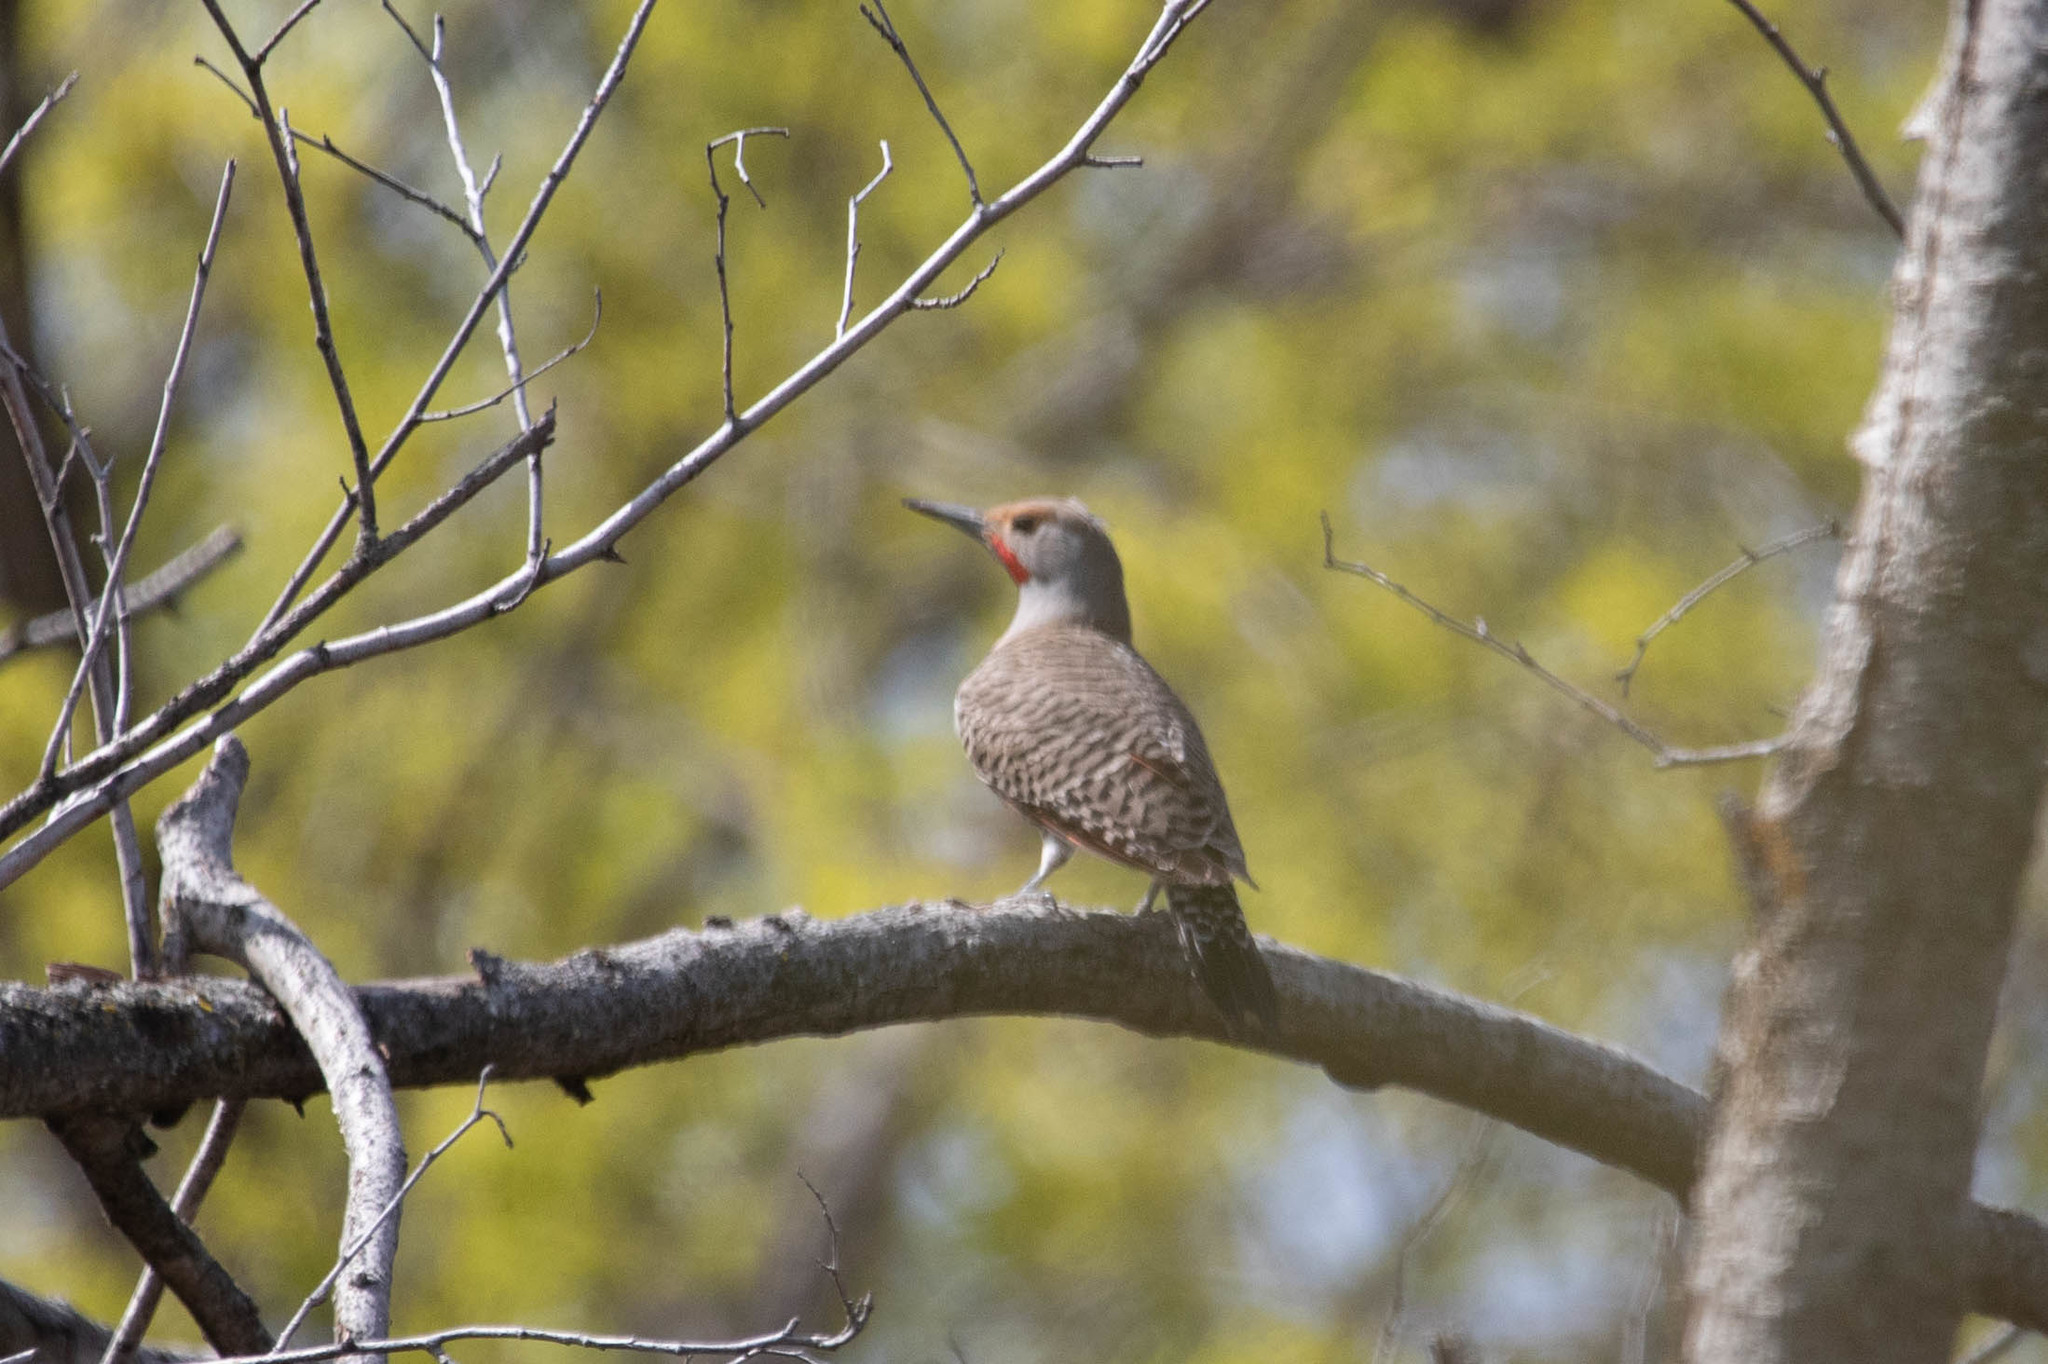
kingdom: Animalia
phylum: Chordata
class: Aves
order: Piciformes
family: Picidae
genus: Colaptes
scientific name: Colaptes auratus
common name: Northern flicker
